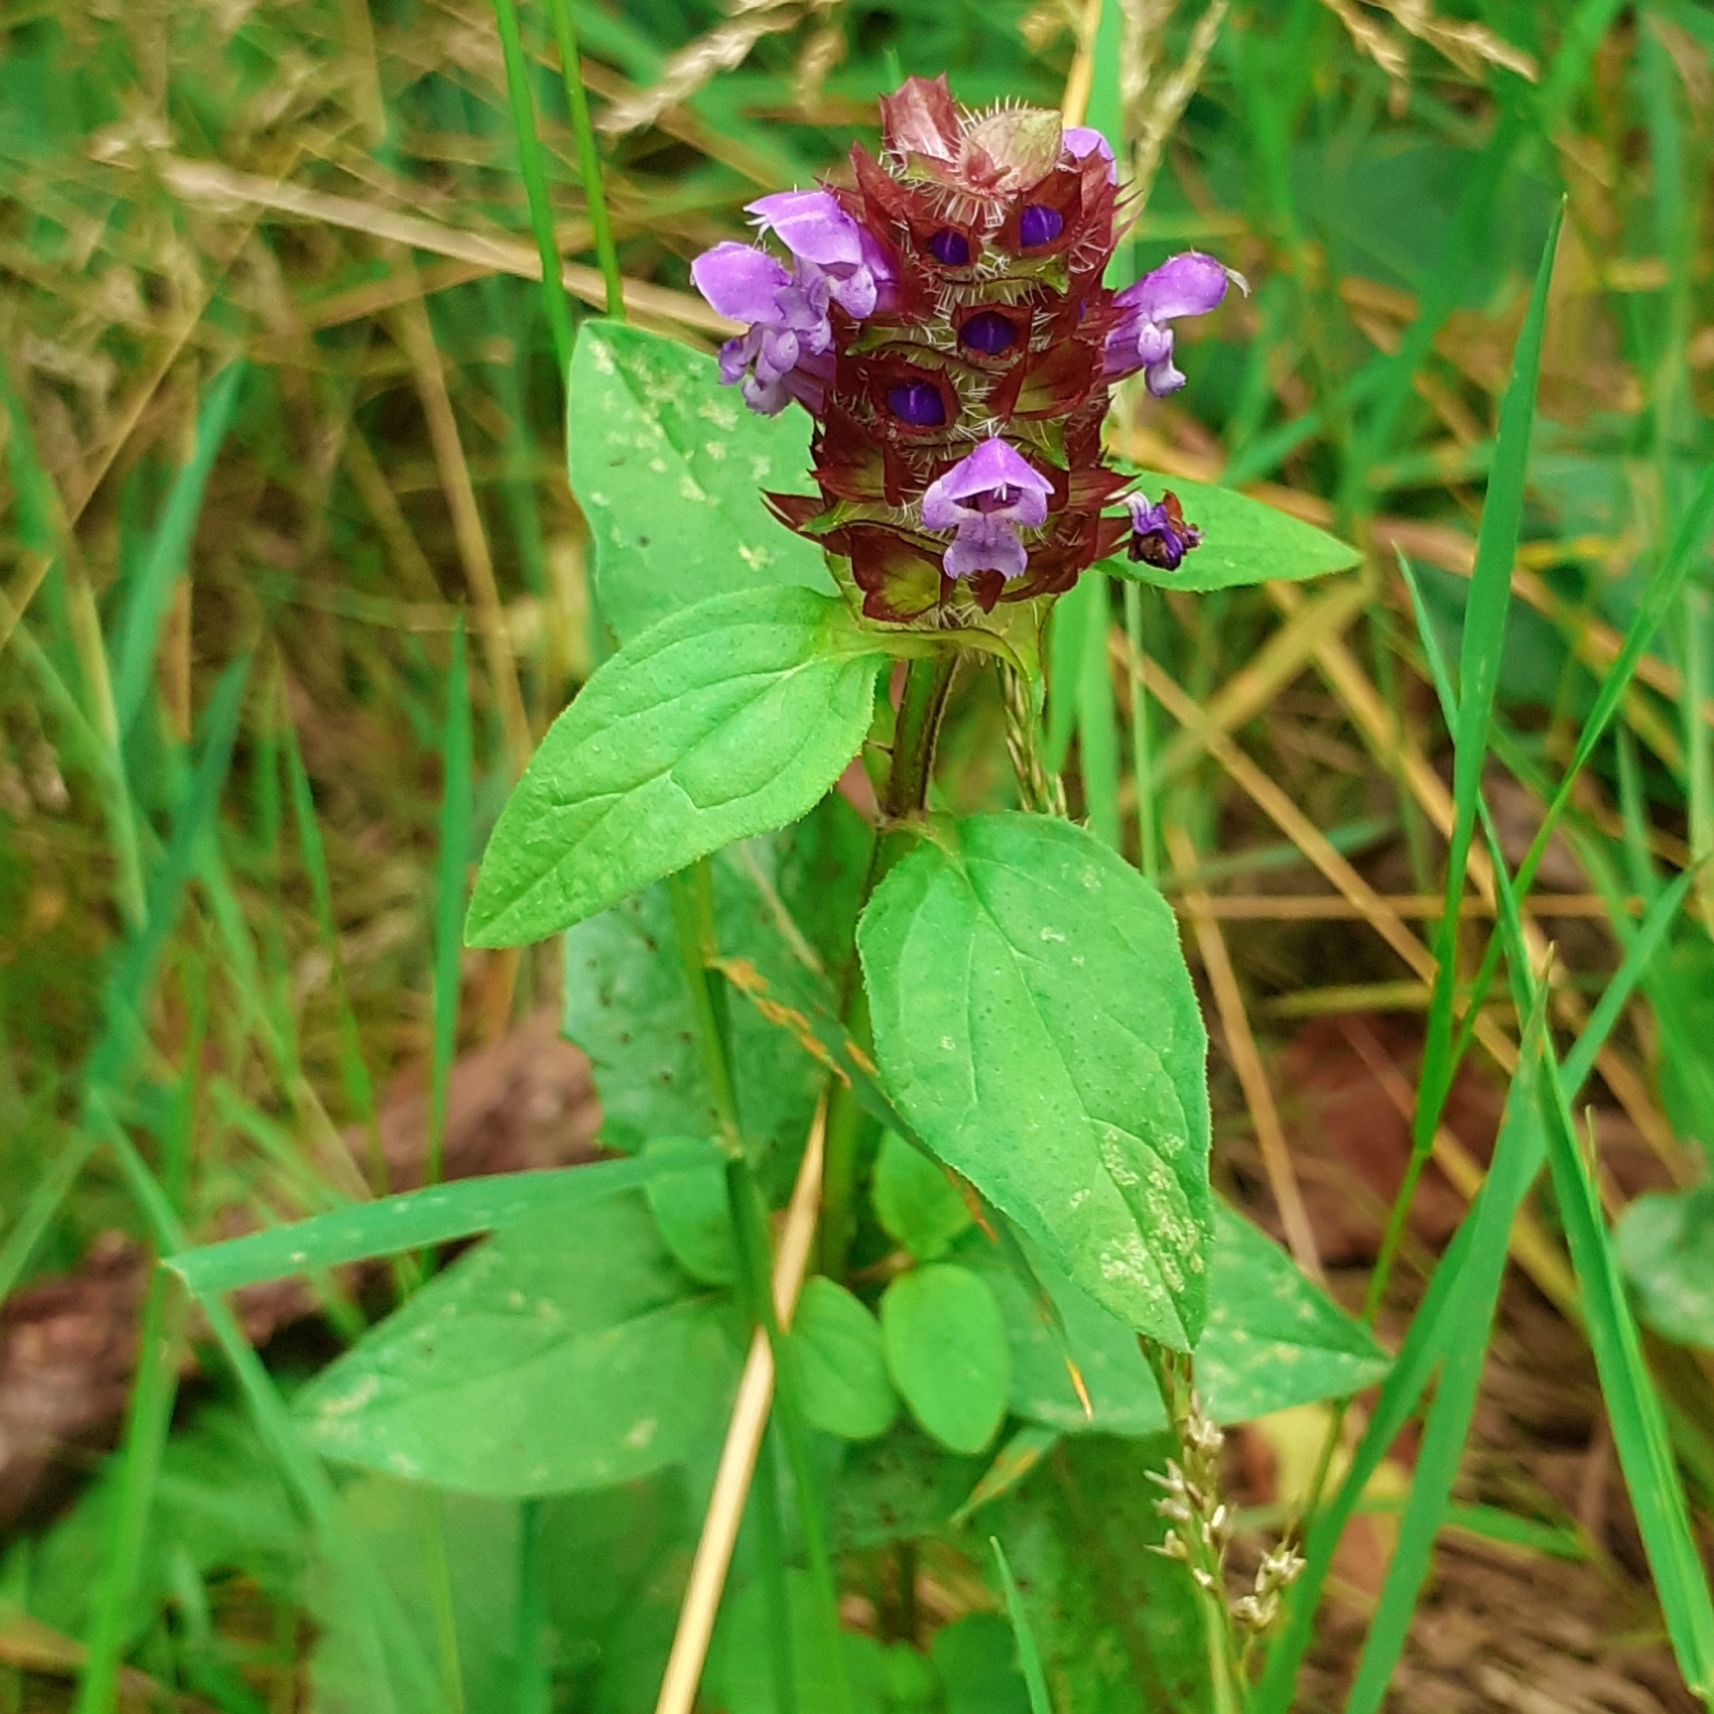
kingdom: Plantae
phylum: Tracheophyta
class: Magnoliopsida
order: Lamiales
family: Lamiaceae
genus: Prunella
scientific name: Prunella vulgaris
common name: Heal-all
